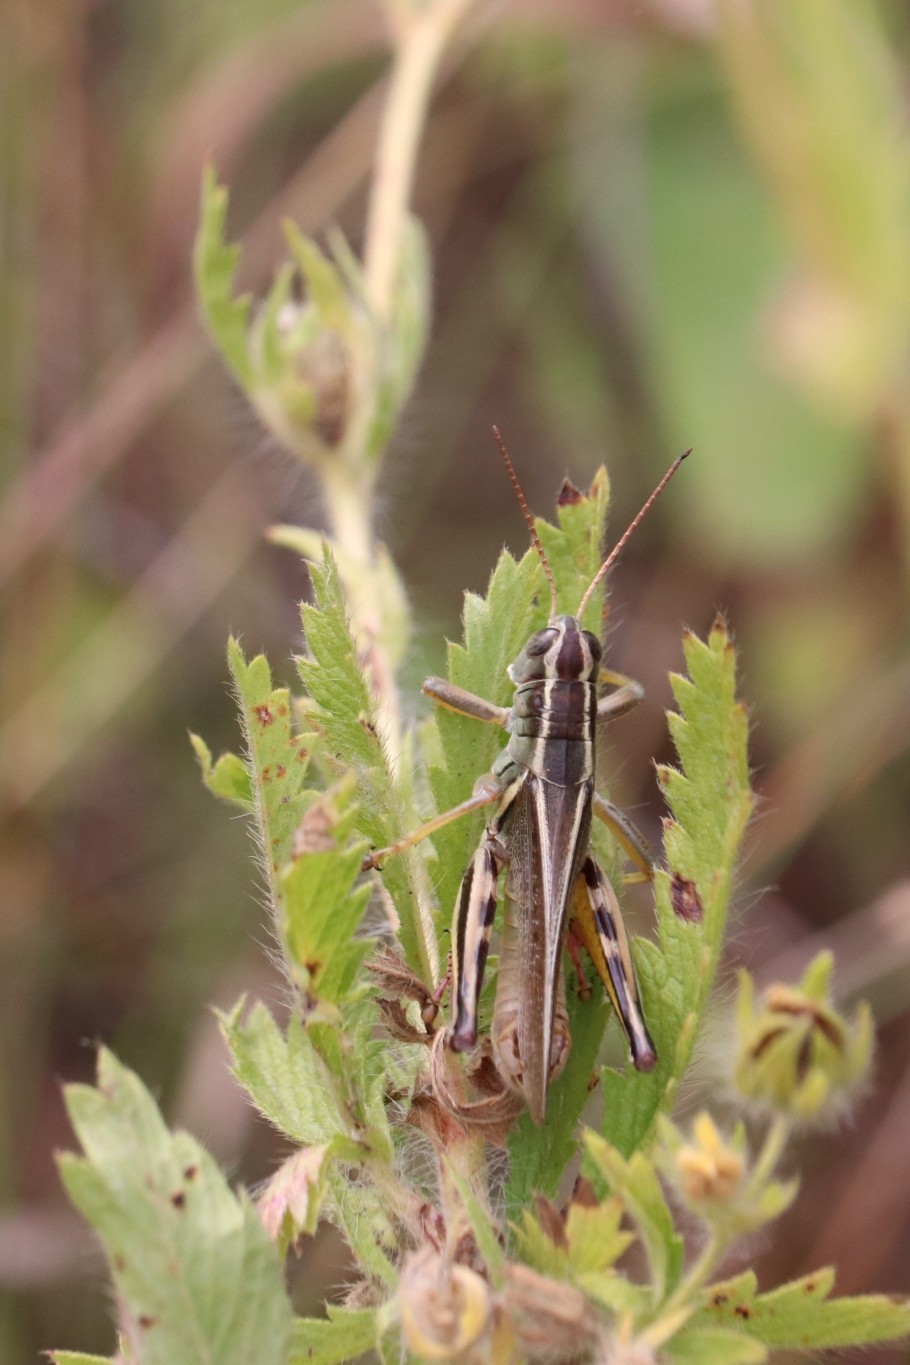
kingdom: Animalia
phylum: Arthropoda
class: Insecta
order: Orthoptera
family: Acrididae
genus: Melanoplus
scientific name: Melanoplus bivittatus
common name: Two-striped grasshopper
